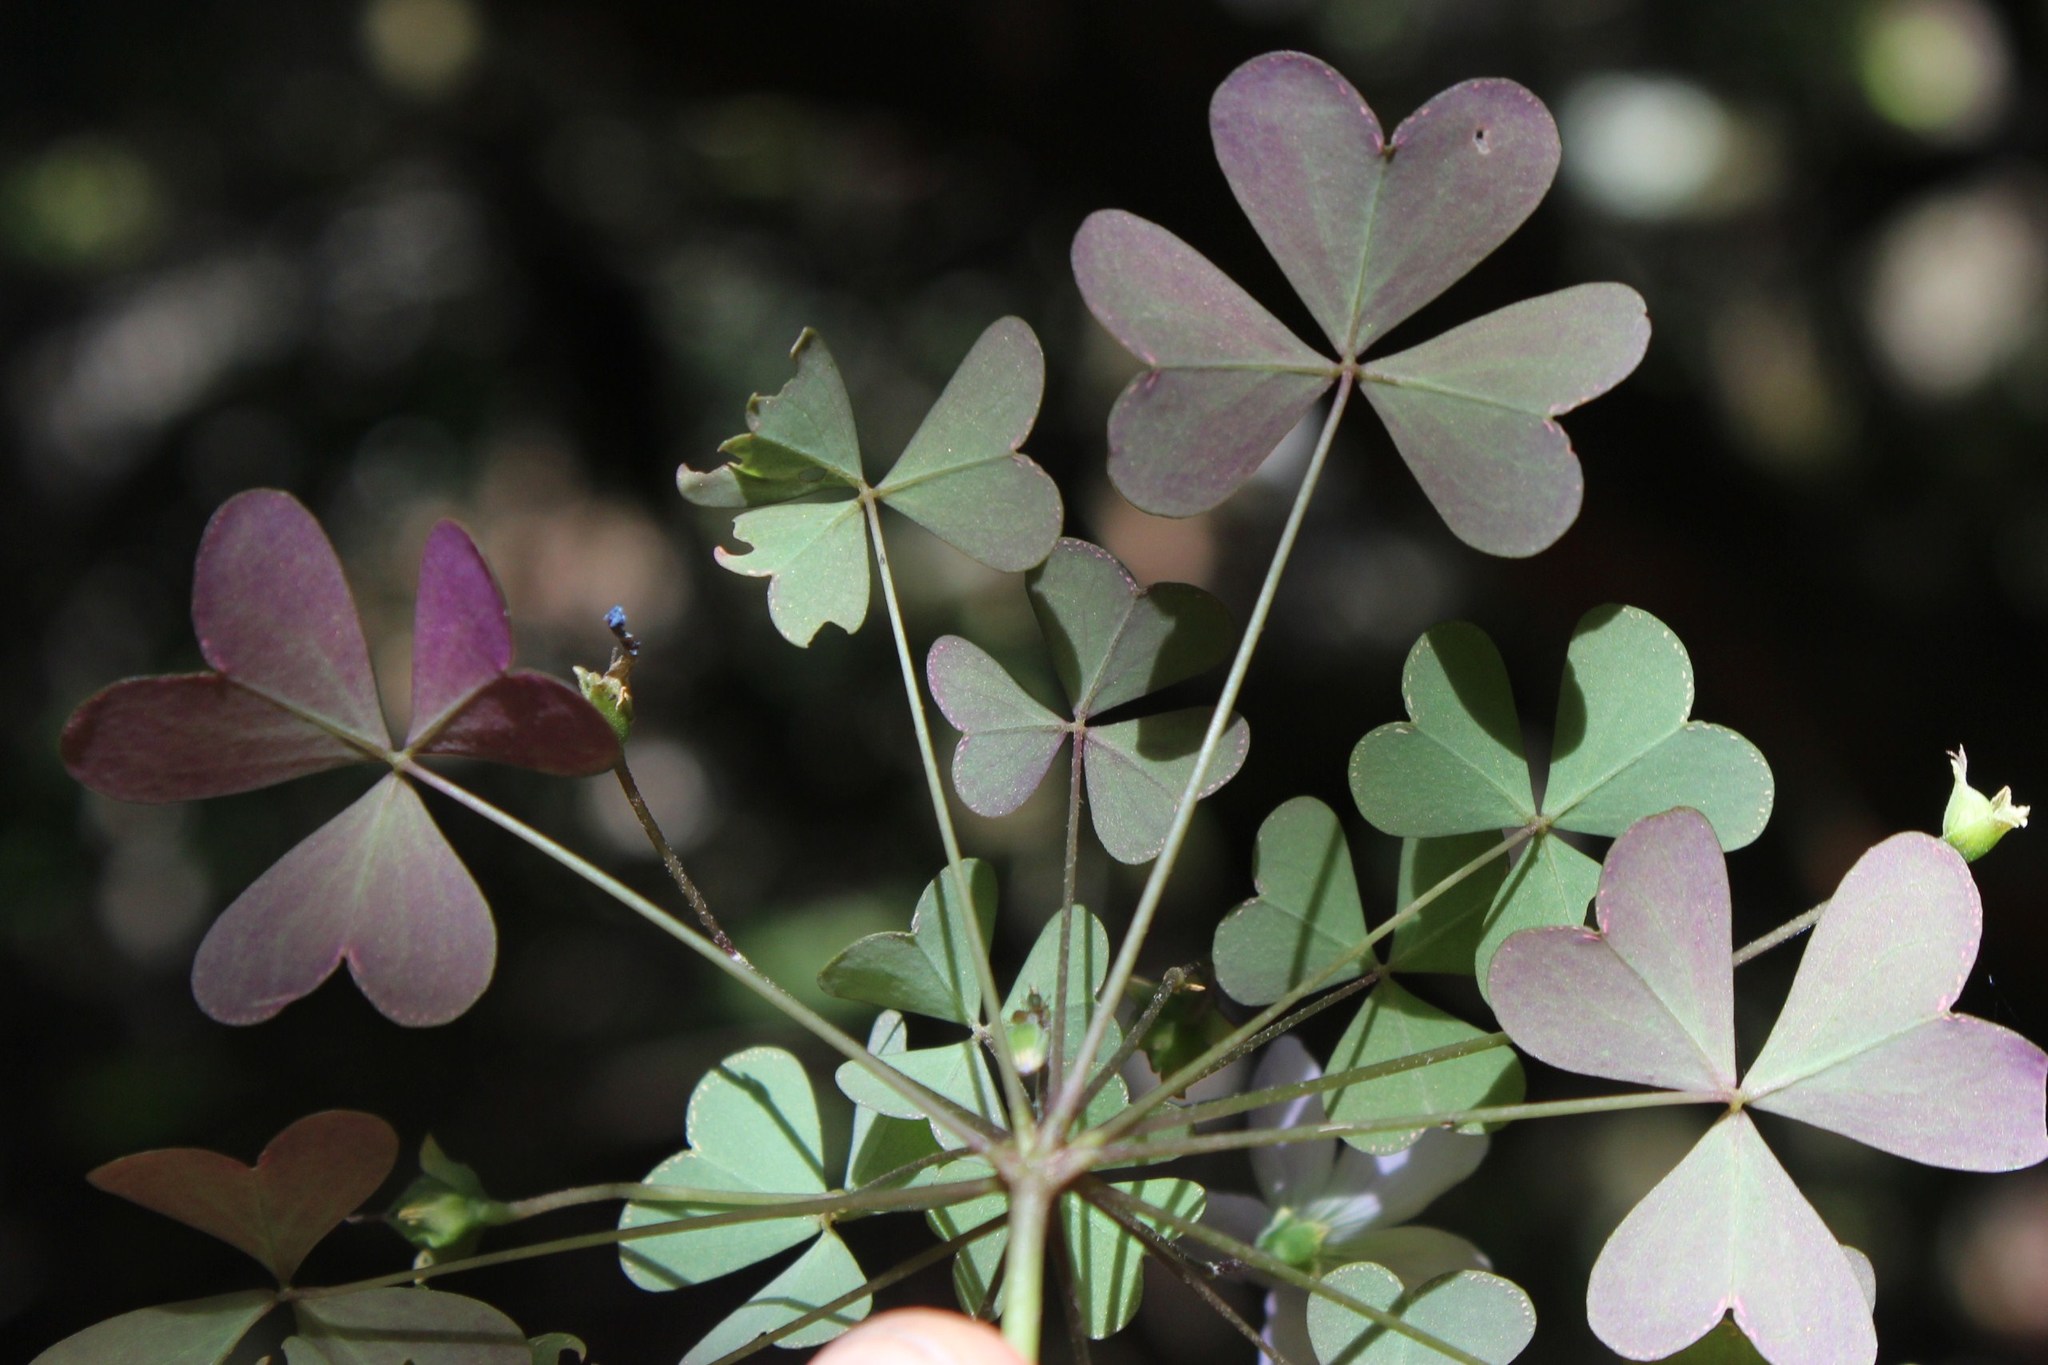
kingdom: Plantae
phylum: Tracheophyta
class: Magnoliopsida
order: Oxalidales
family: Oxalidaceae
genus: Oxalis
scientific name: Oxalis incarnata
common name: Pale pink-sorrel
